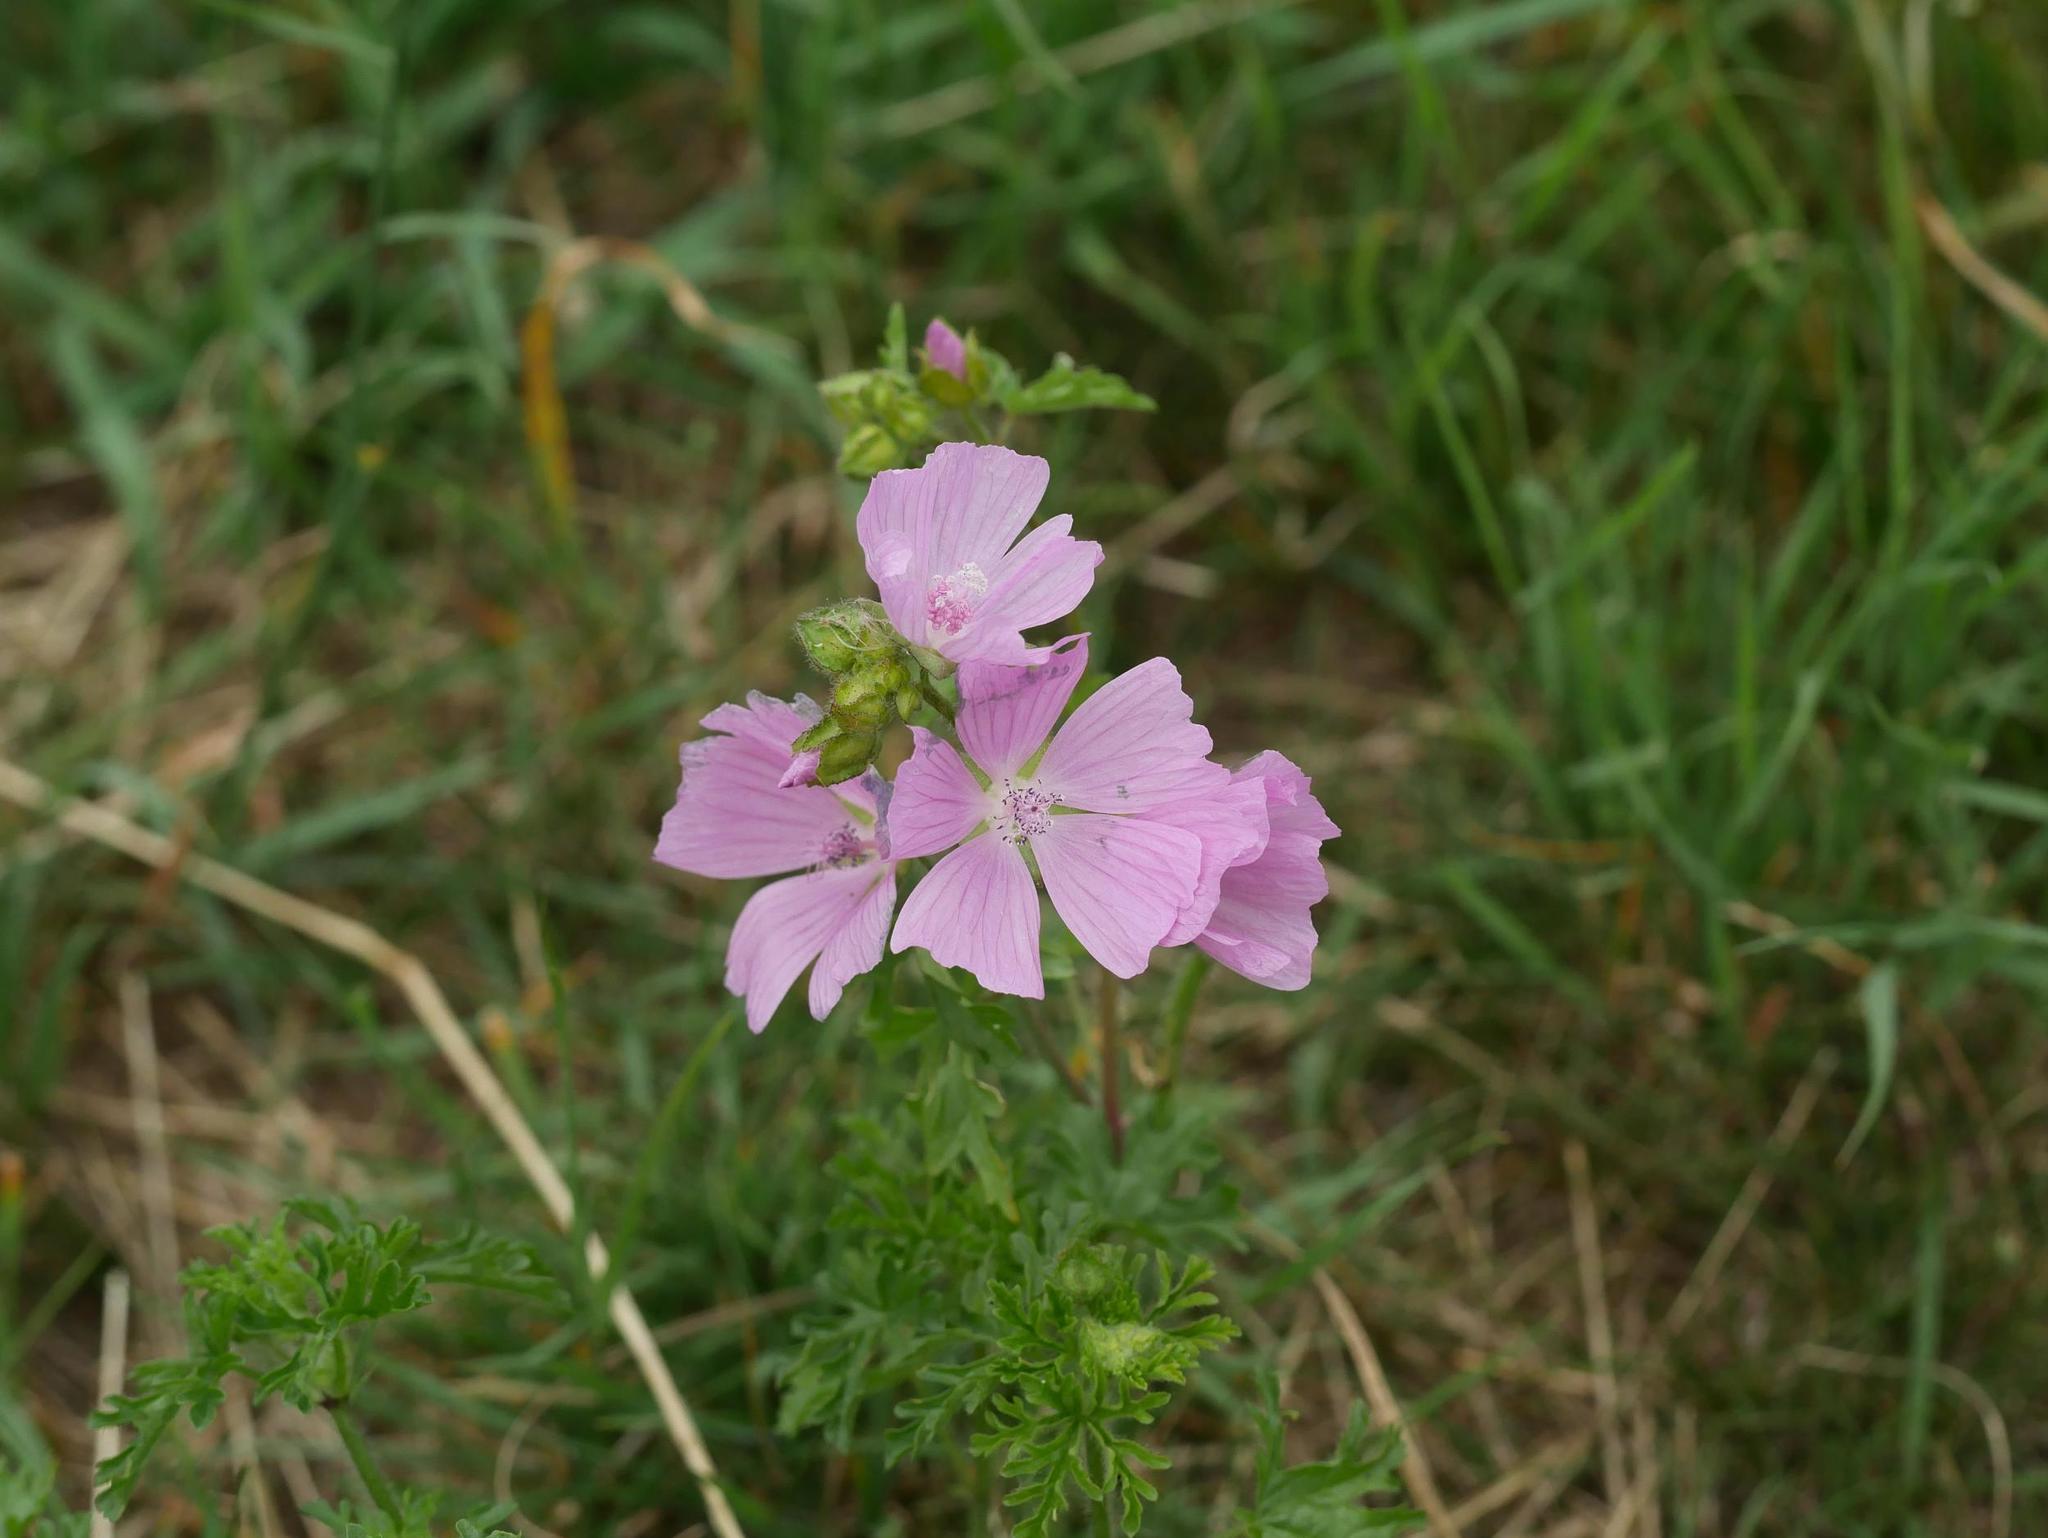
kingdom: Plantae
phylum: Tracheophyta
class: Magnoliopsida
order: Malvales
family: Malvaceae
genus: Malva
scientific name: Malva moschata
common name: Musk mallow
